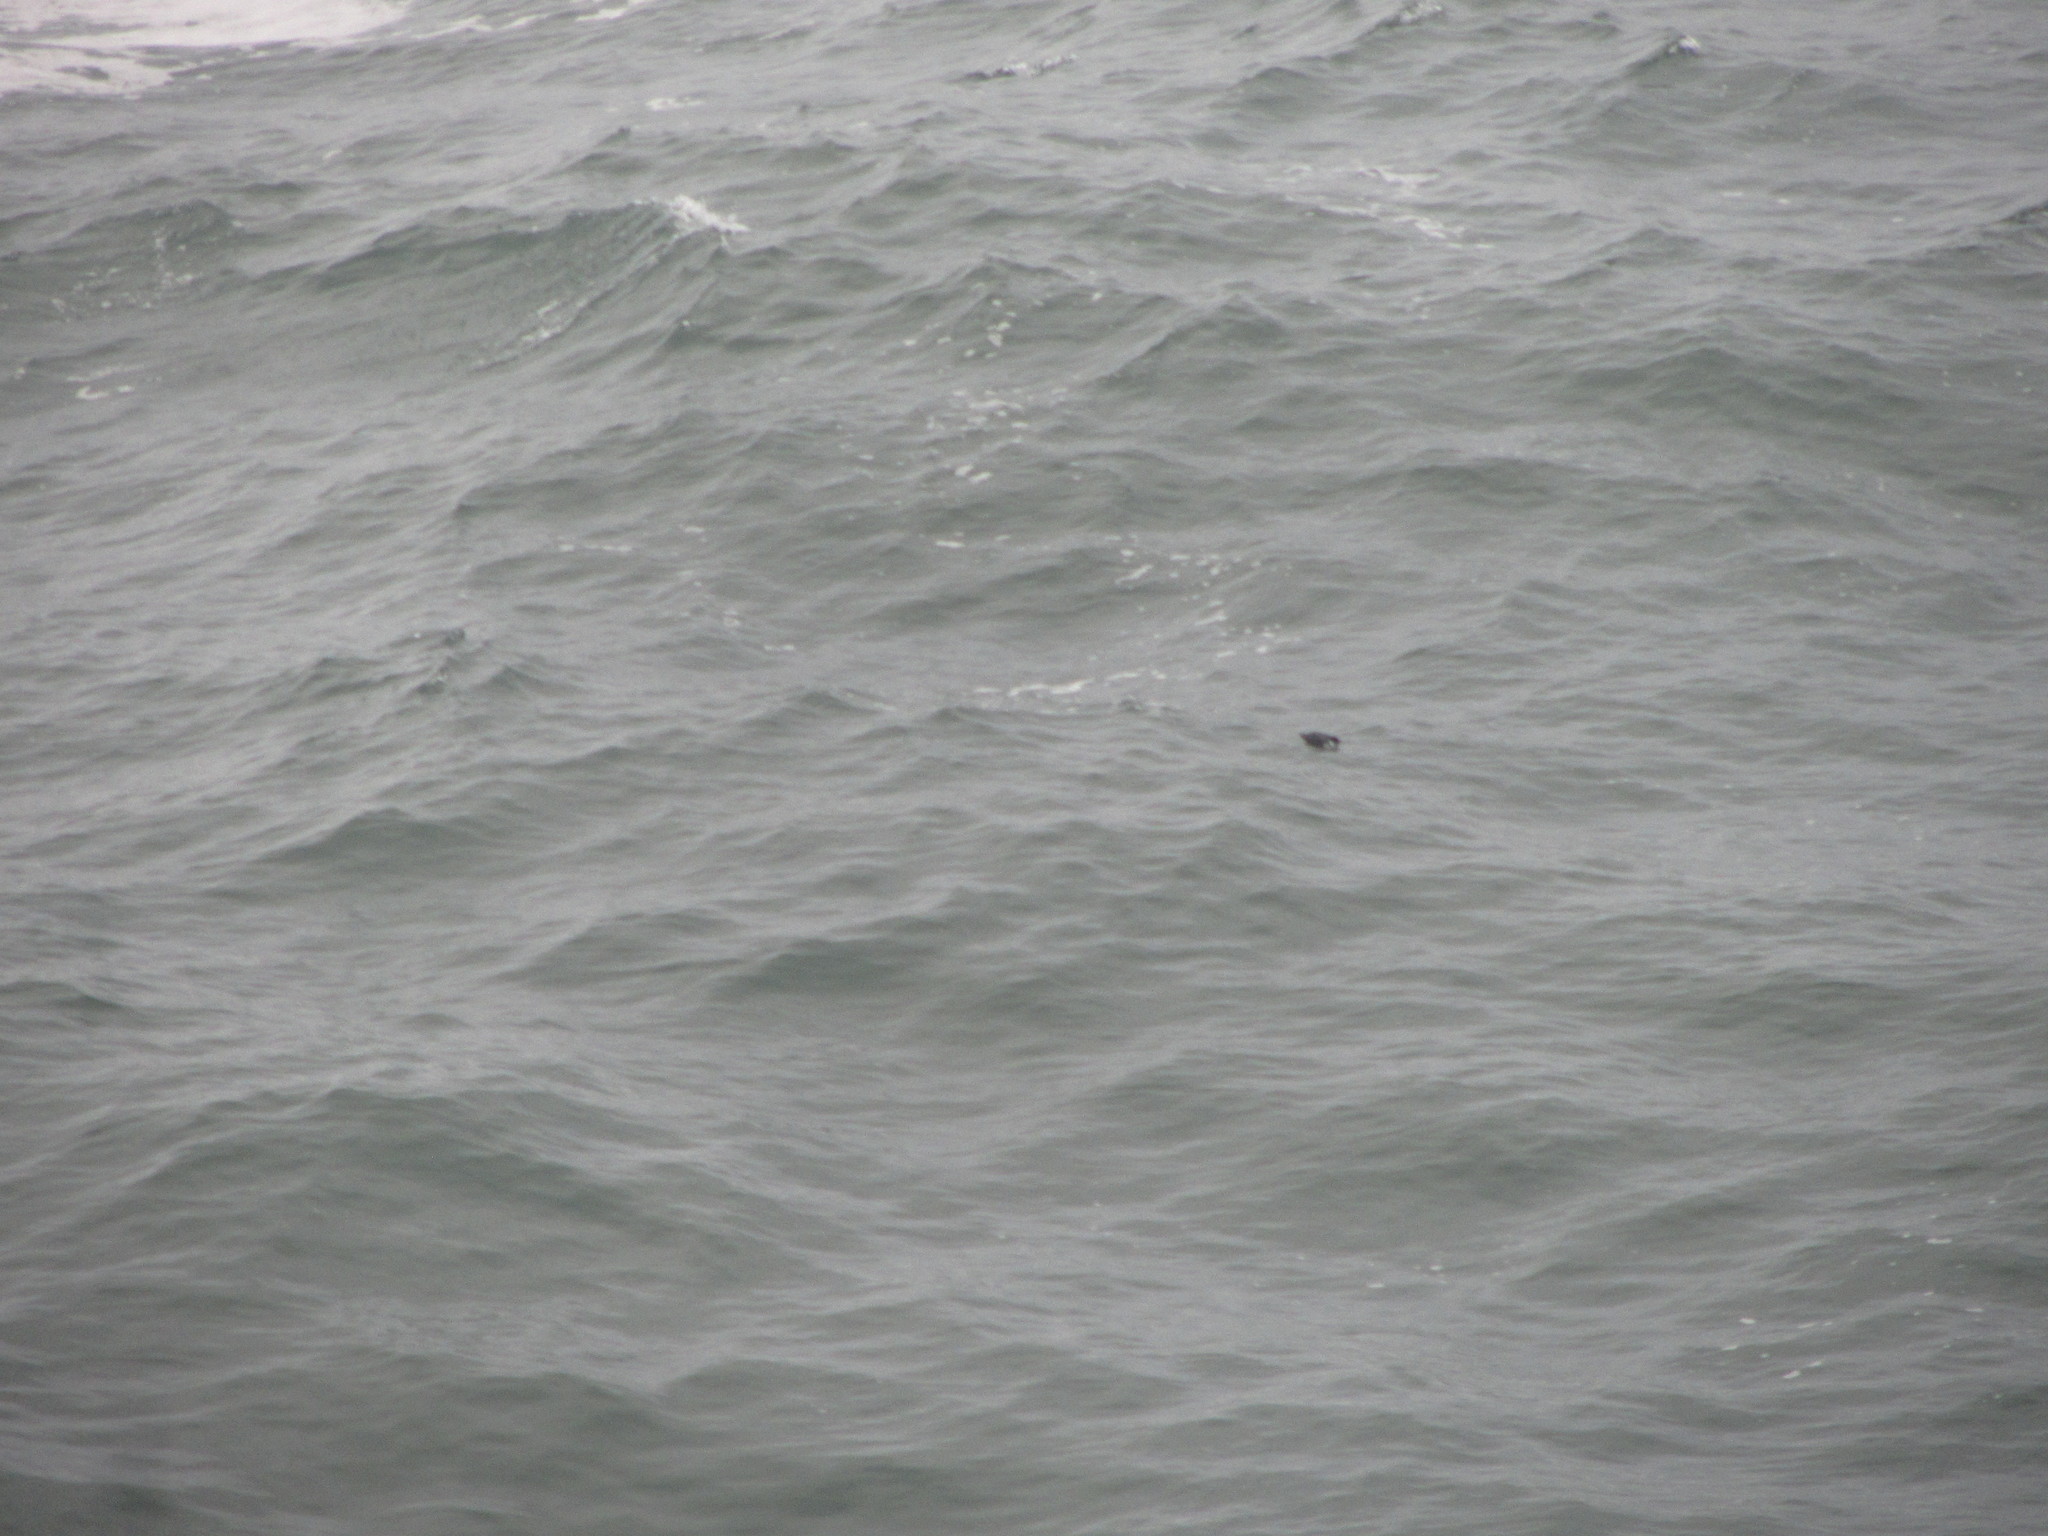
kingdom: Animalia
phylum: Chordata
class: Aves
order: Charadriiformes
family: Alcidae
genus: Synthliboramphus
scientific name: Synthliboramphus antiquus
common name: Ancient murrelet
